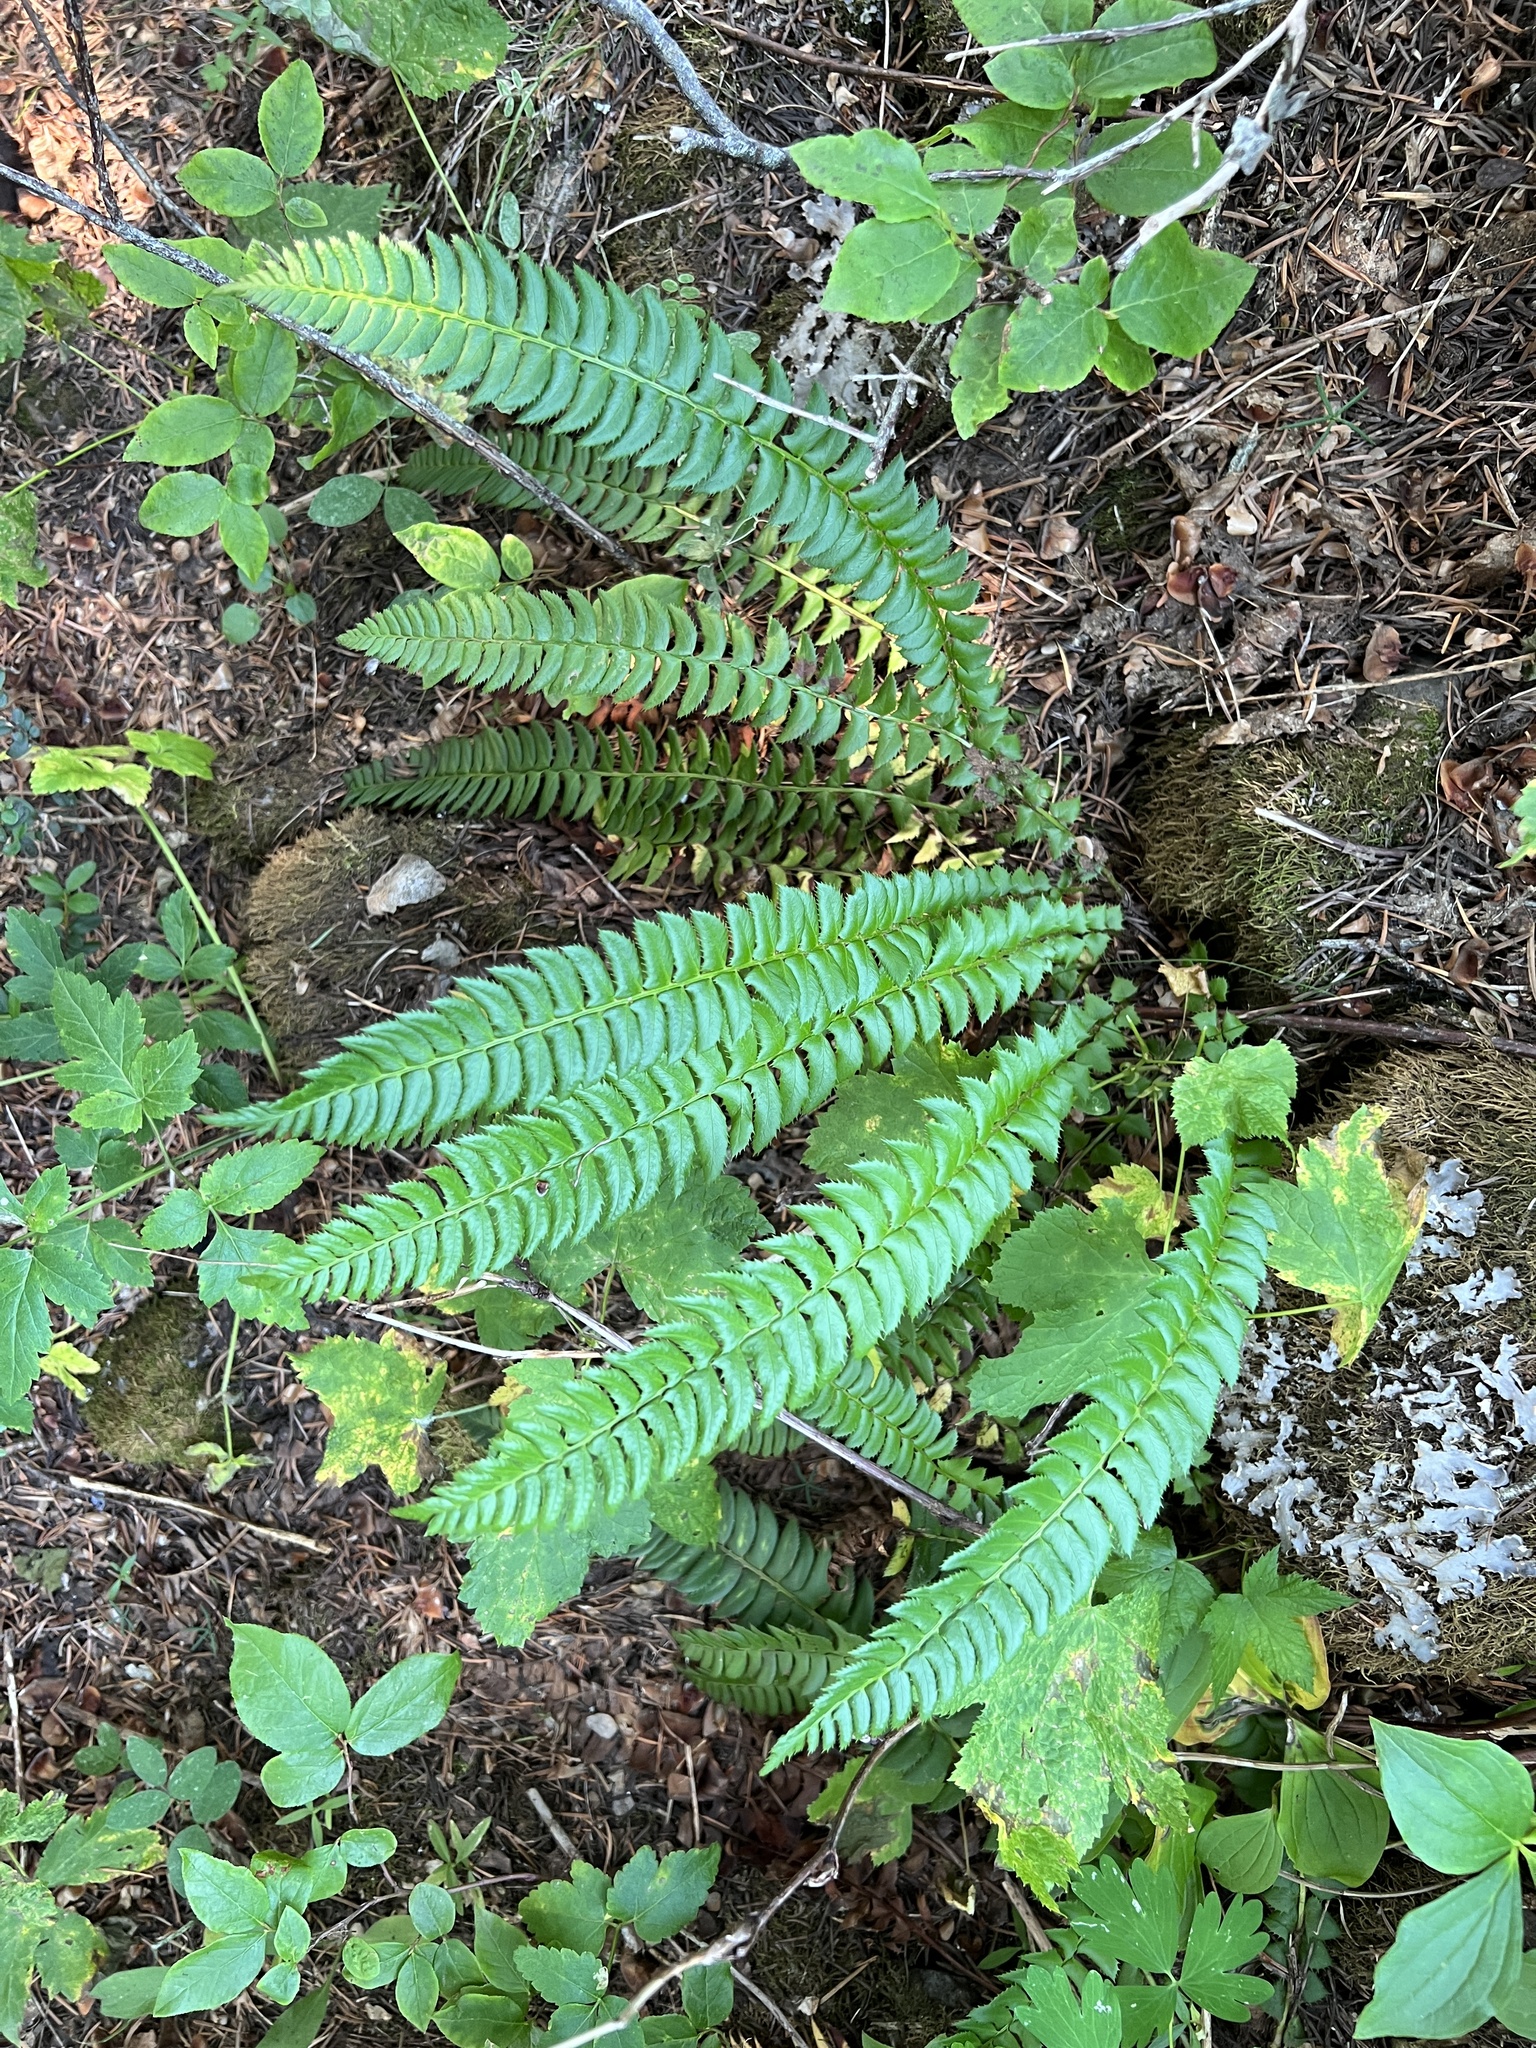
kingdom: Plantae
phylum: Tracheophyta
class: Polypodiopsida
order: Polypodiales
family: Dryopteridaceae
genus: Polystichum
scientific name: Polystichum lonchitis
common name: Holly fern
